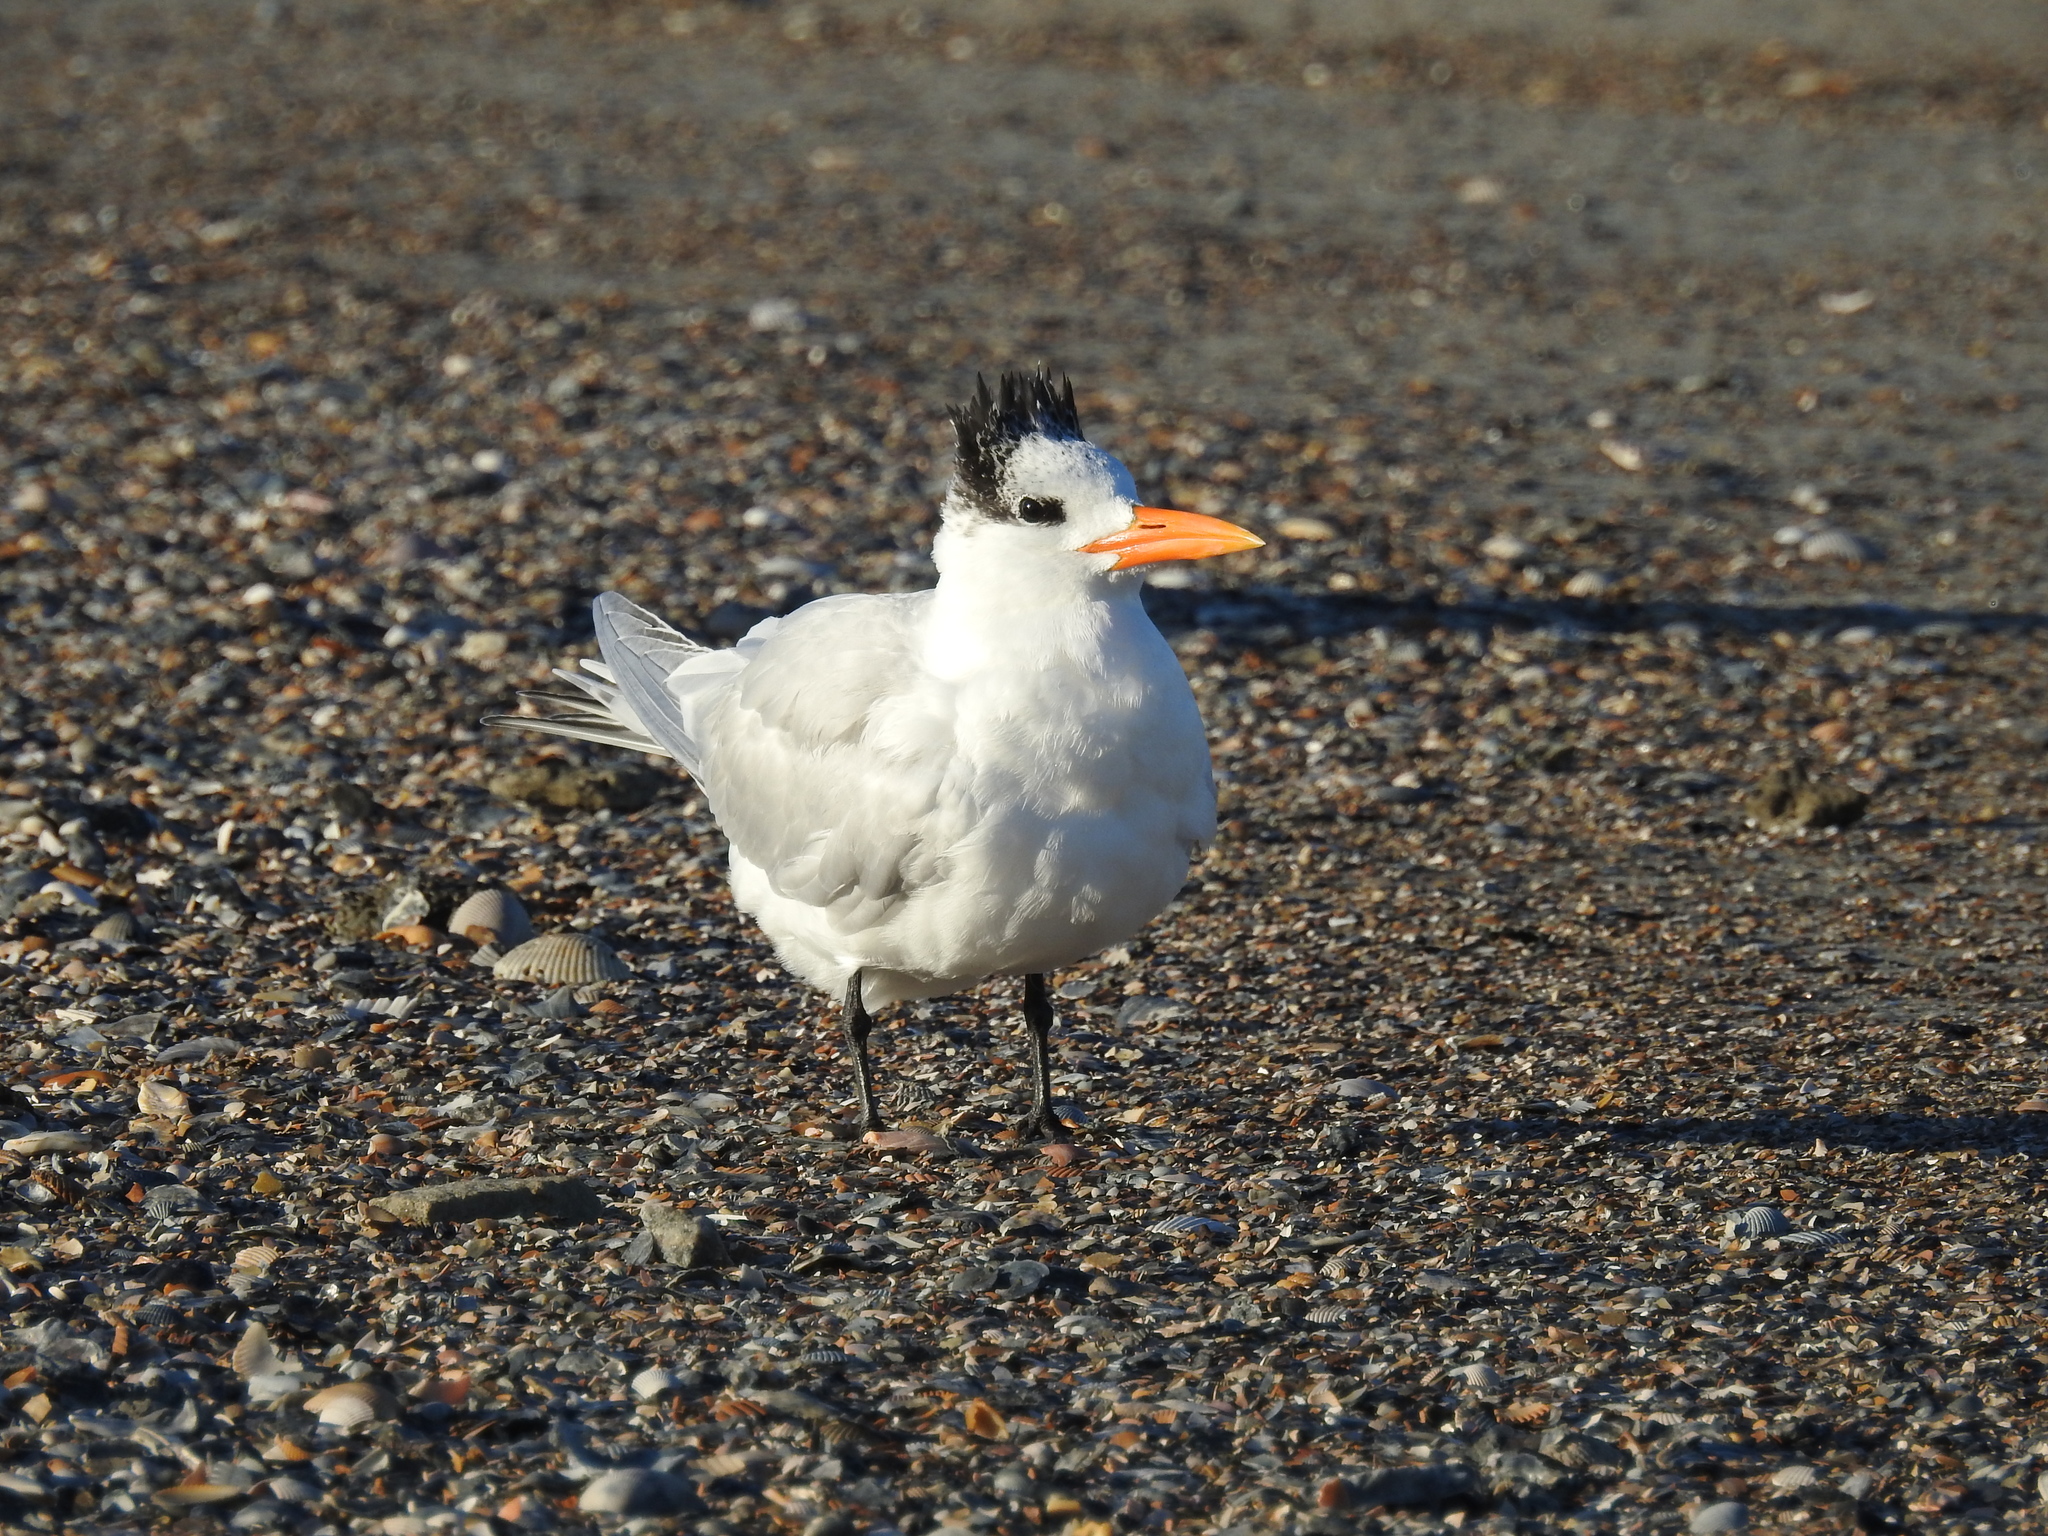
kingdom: Animalia
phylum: Chordata
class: Aves
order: Charadriiformes
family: Laridae
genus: Thalasseus
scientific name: Thalasseus maximus
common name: Royal tern
